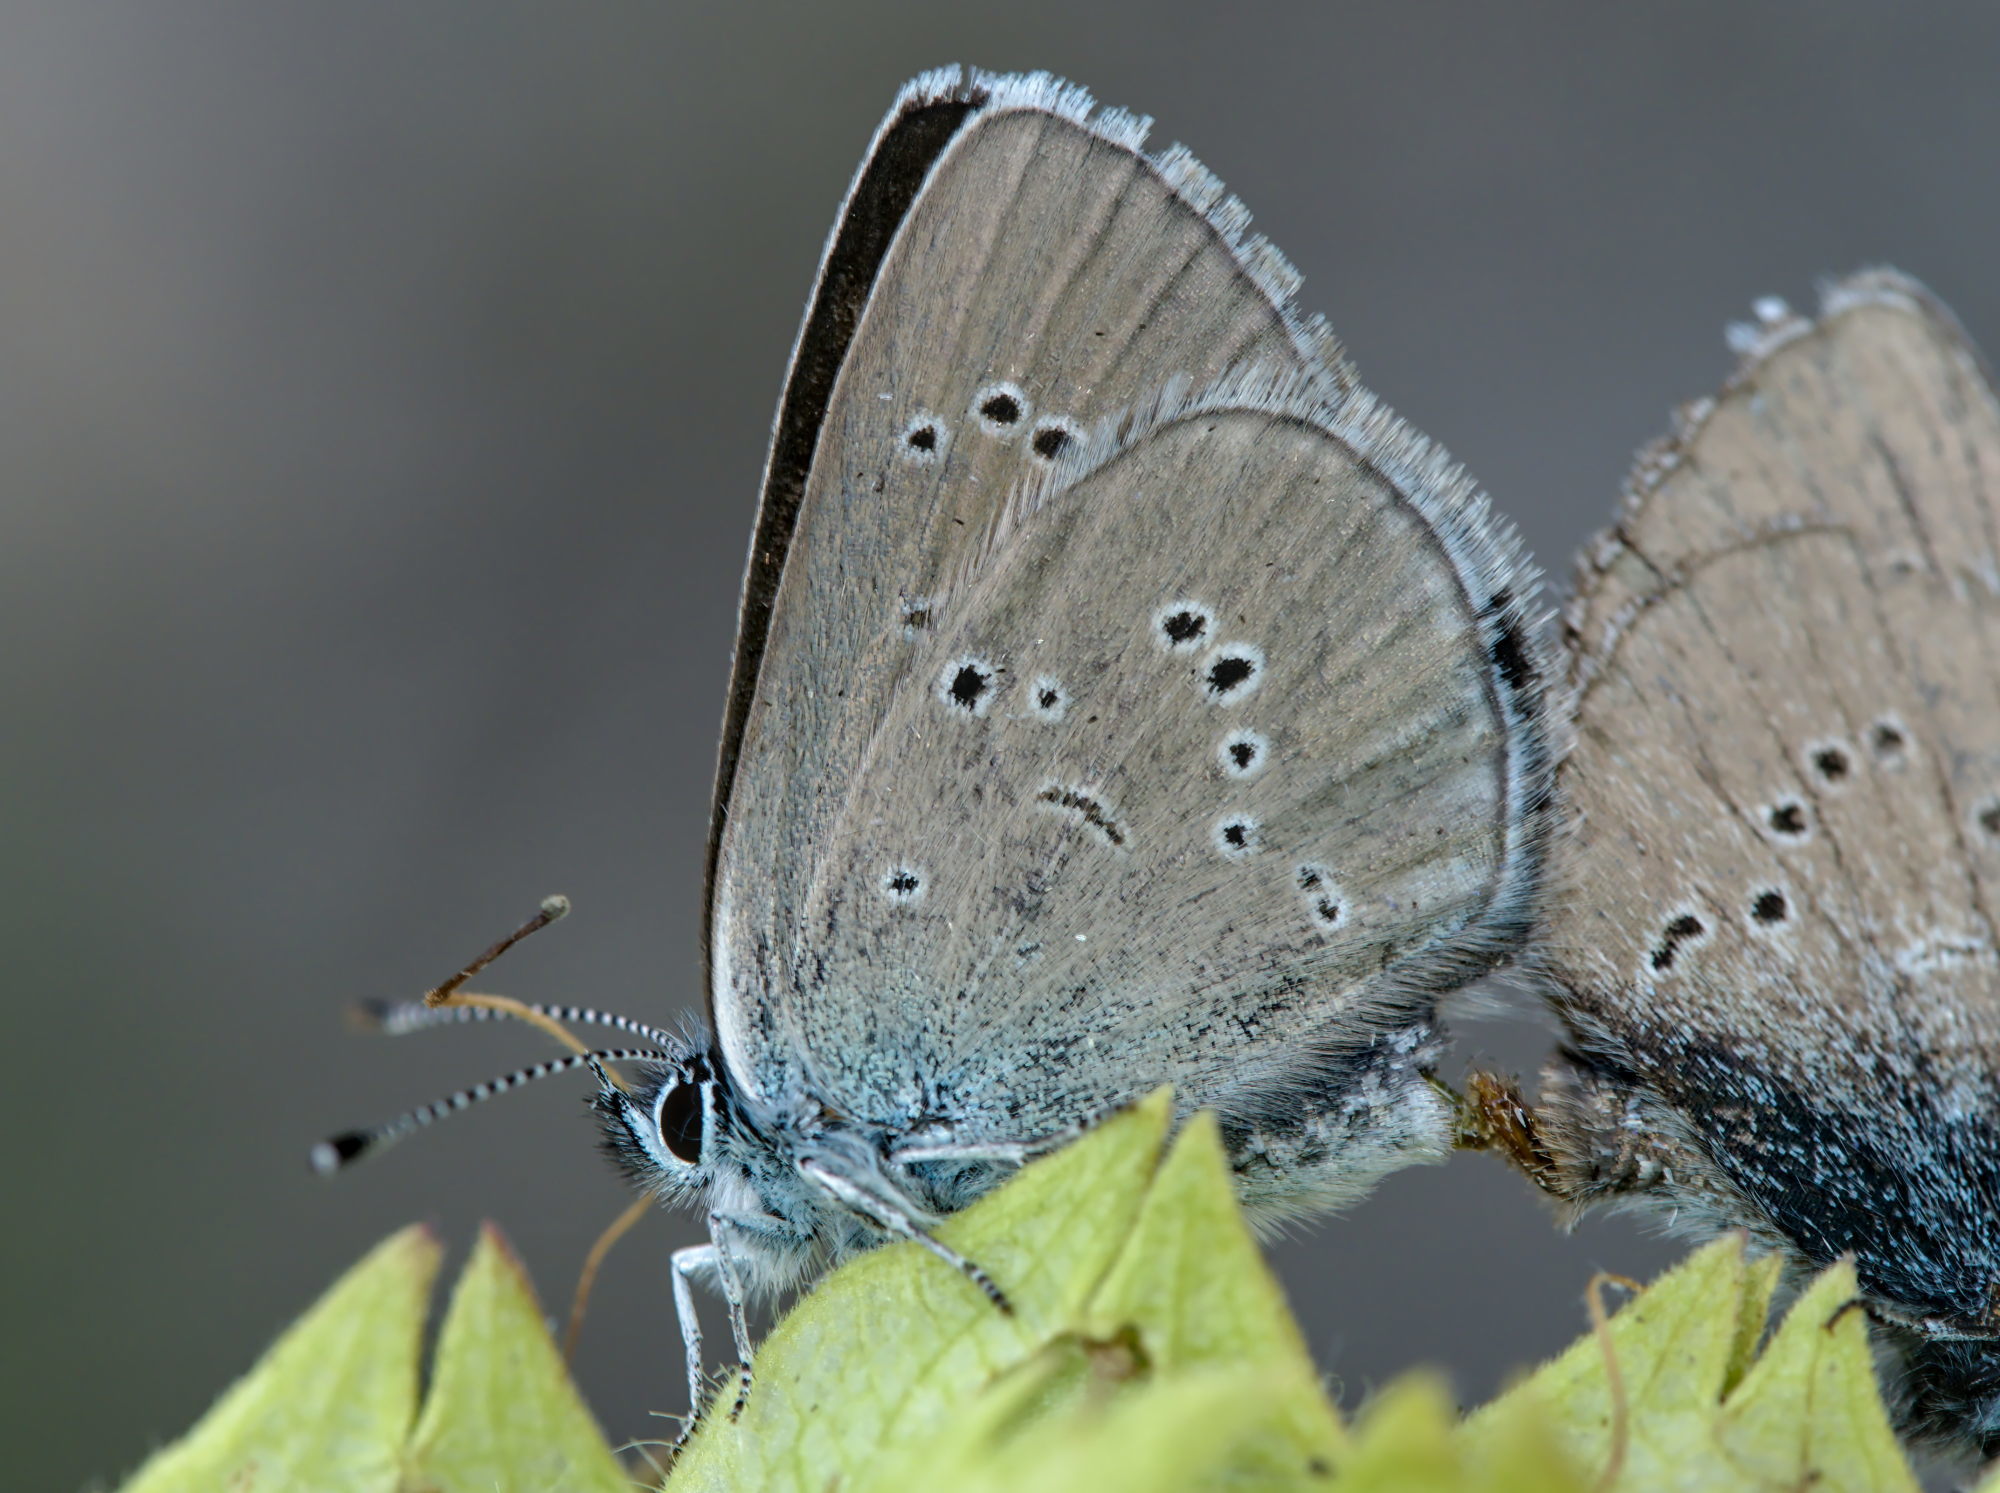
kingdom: Animalia
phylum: Arthropoda
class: Insecta
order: Lepidoptera
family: Lycaenidae
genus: Cyaniris
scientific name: Cyaniris semiargus
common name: Mazarine blue
